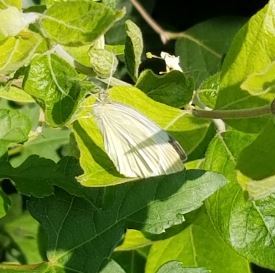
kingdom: Animalia
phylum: Arthropoda
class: Insecta
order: Lepidoptera
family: Pieridae
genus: Pieris
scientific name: Pieris rapae
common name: Small white
